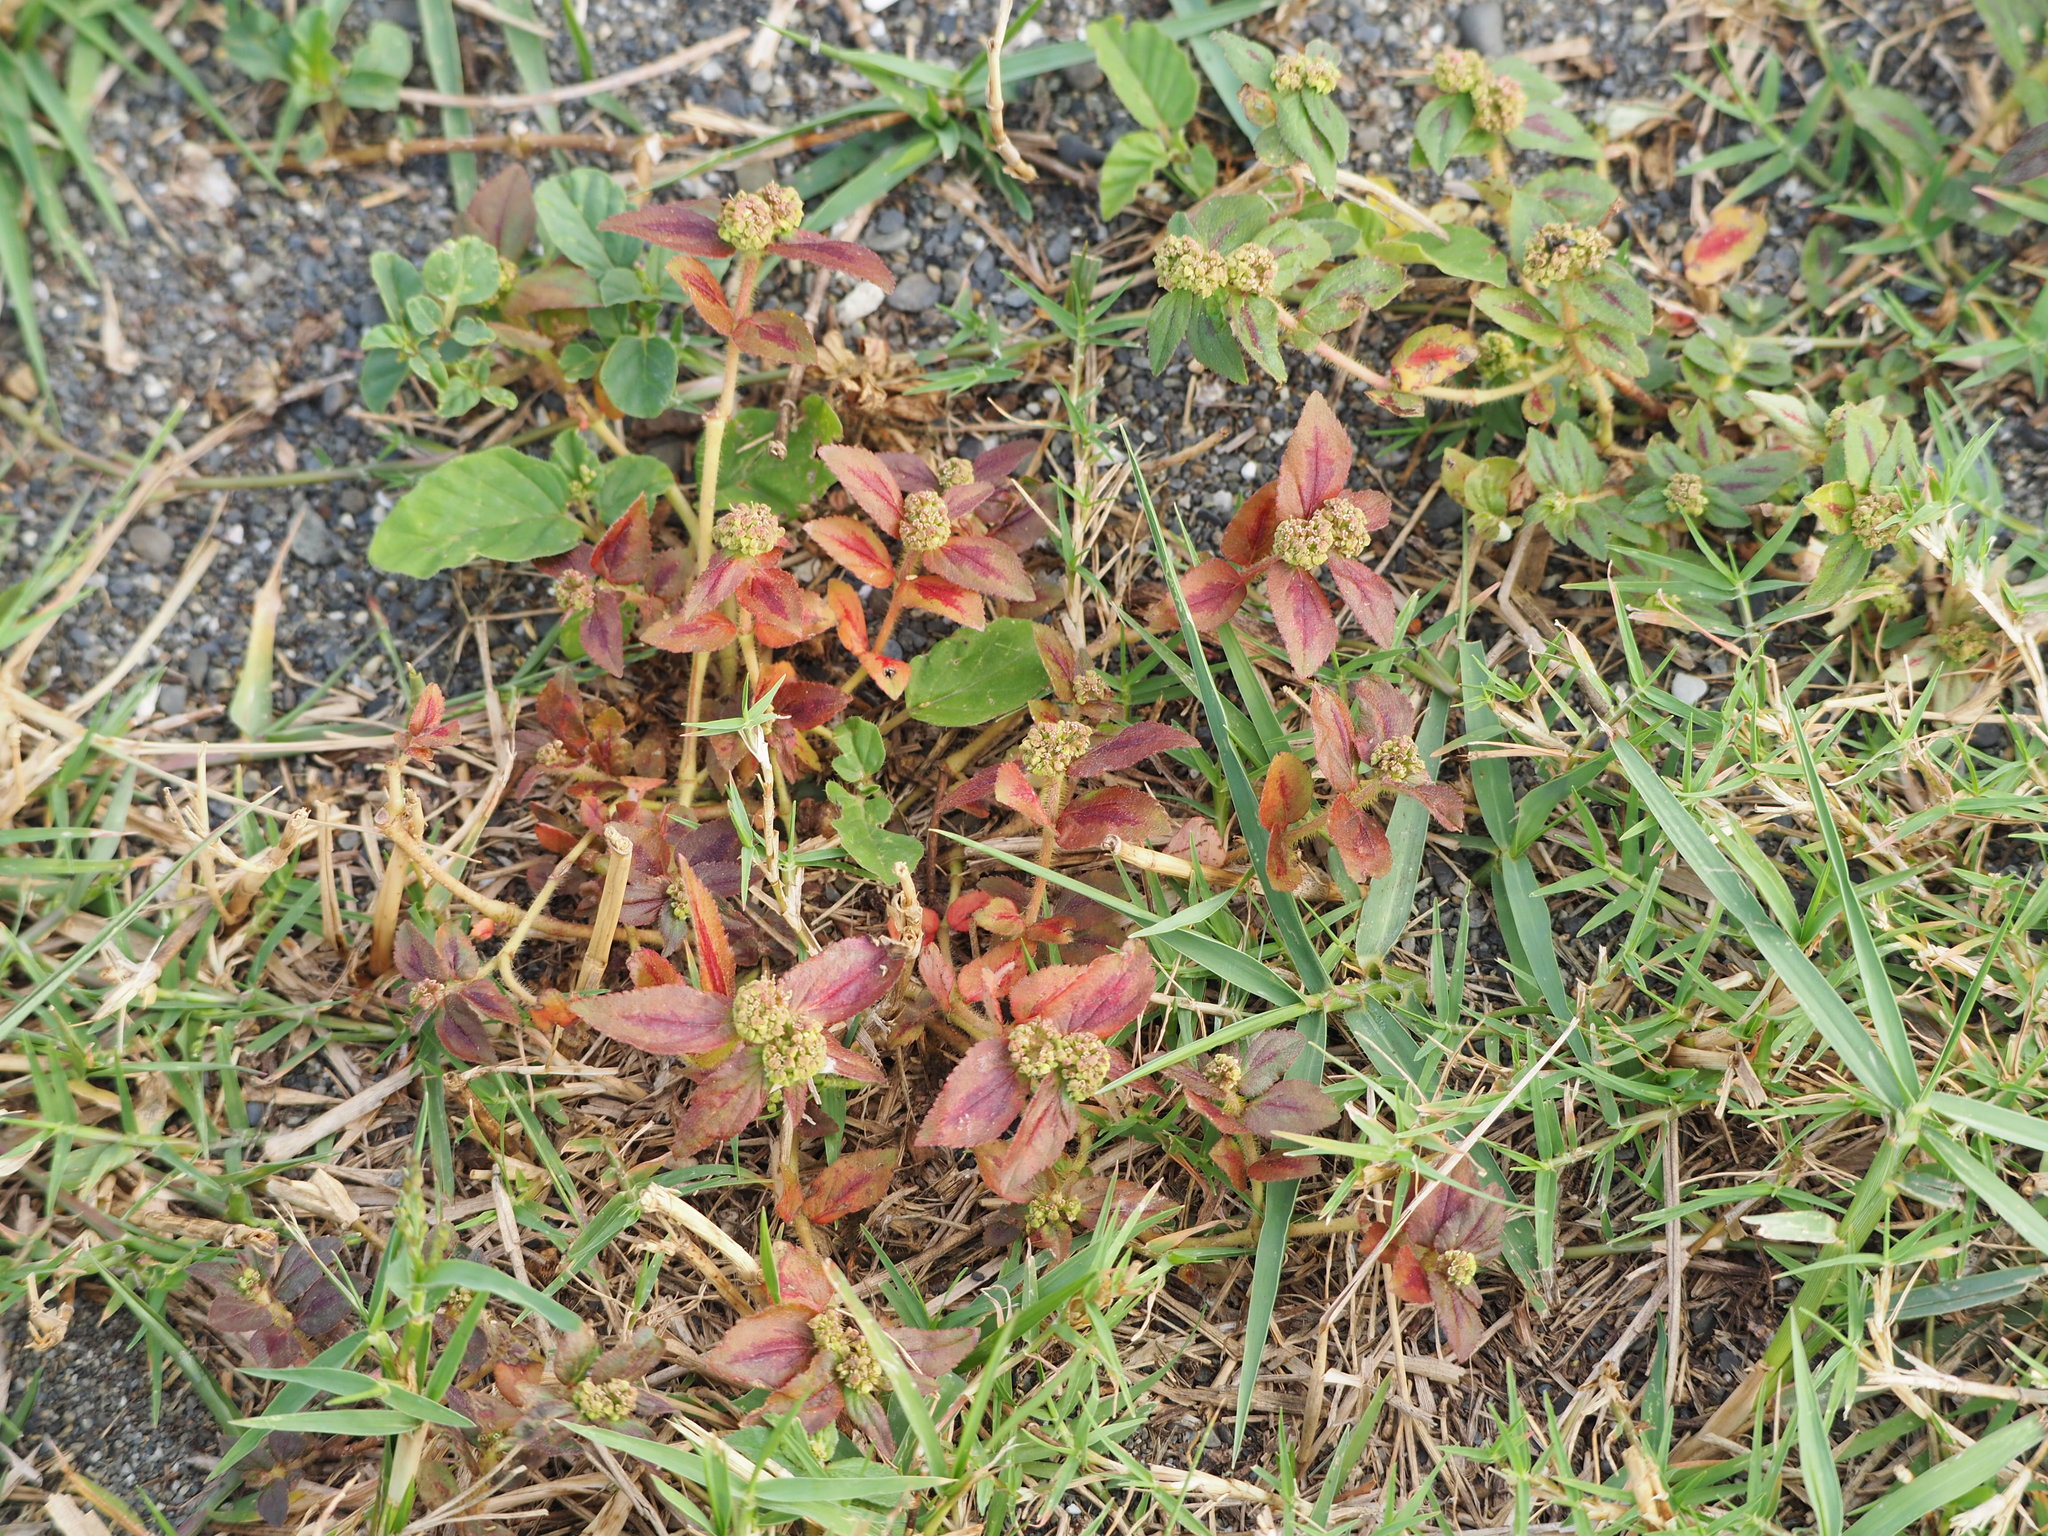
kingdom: Plantae
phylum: Tracheophyta
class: Magnoliopsida
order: Malpighiales
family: Euphorbiaceae
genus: Euphorbia
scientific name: Euphorbia hirta
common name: Pillpod sandmat
